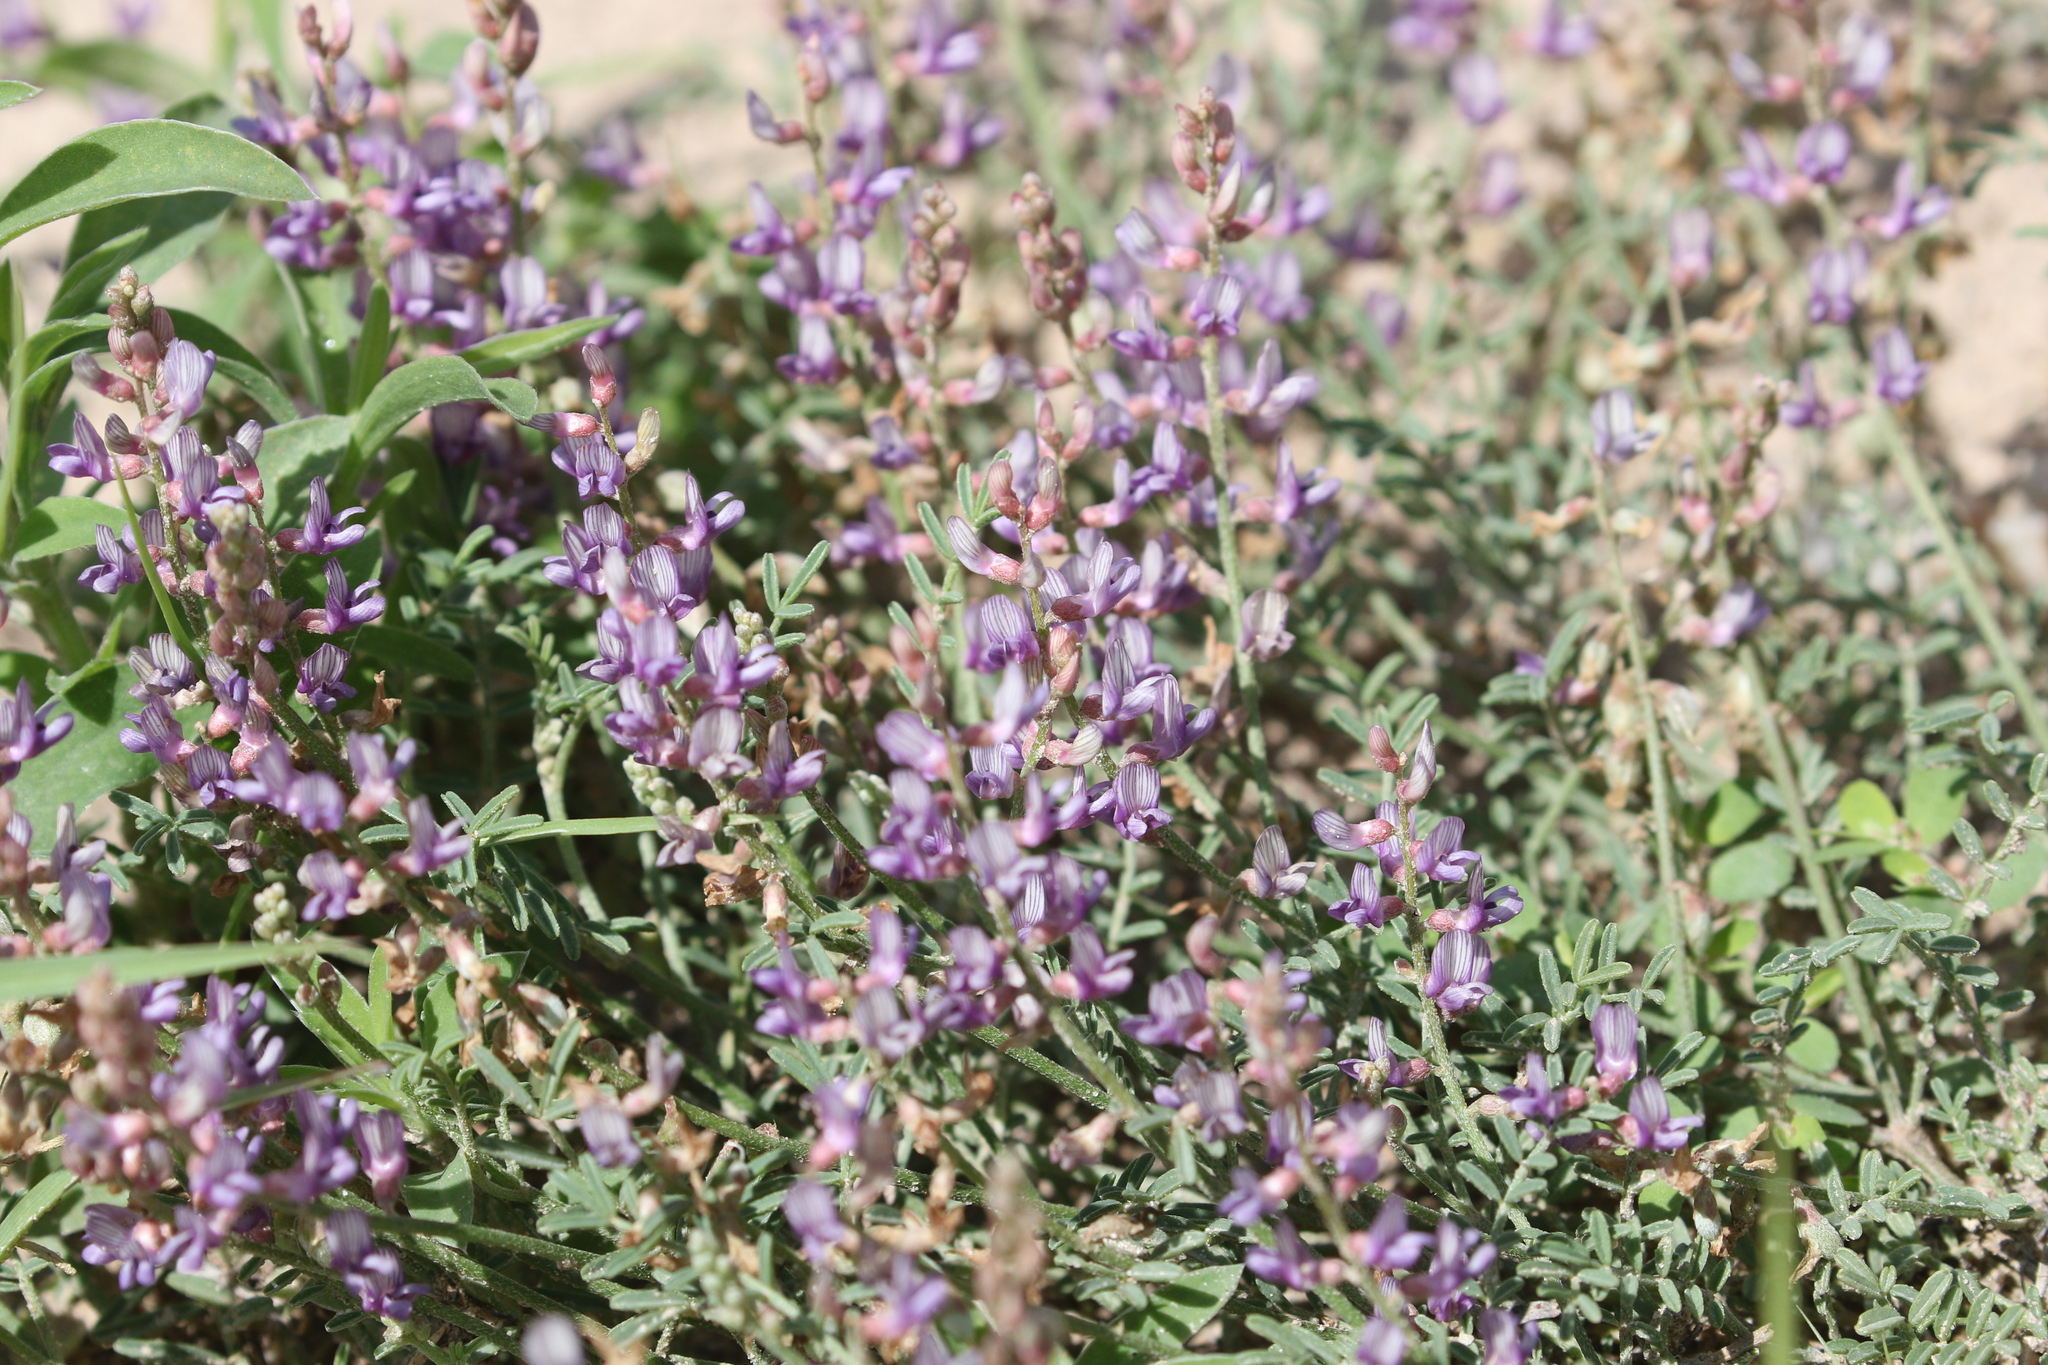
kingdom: Plantae
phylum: Tracheophyta
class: Magnoliopsida
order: Fabales
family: Fabaceae
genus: Astragalus
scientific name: Astragalus gracilis
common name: Slender milk-vetch
